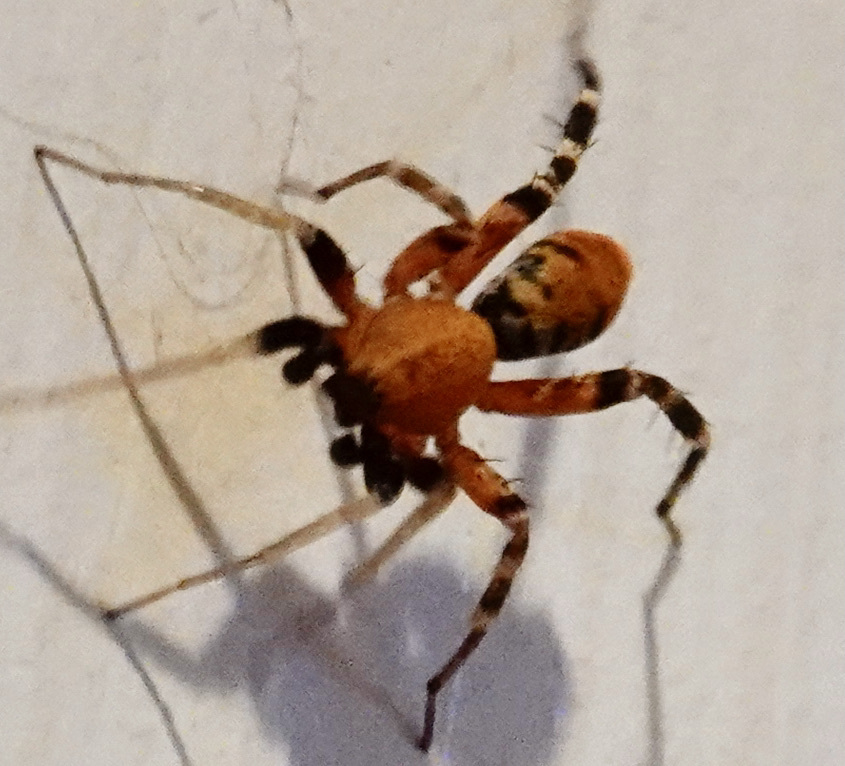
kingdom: Animalia
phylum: Arthropoda
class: Arachnida
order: Araneae
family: Corinnidae
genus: Castianeira
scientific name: Castianeira amoena
